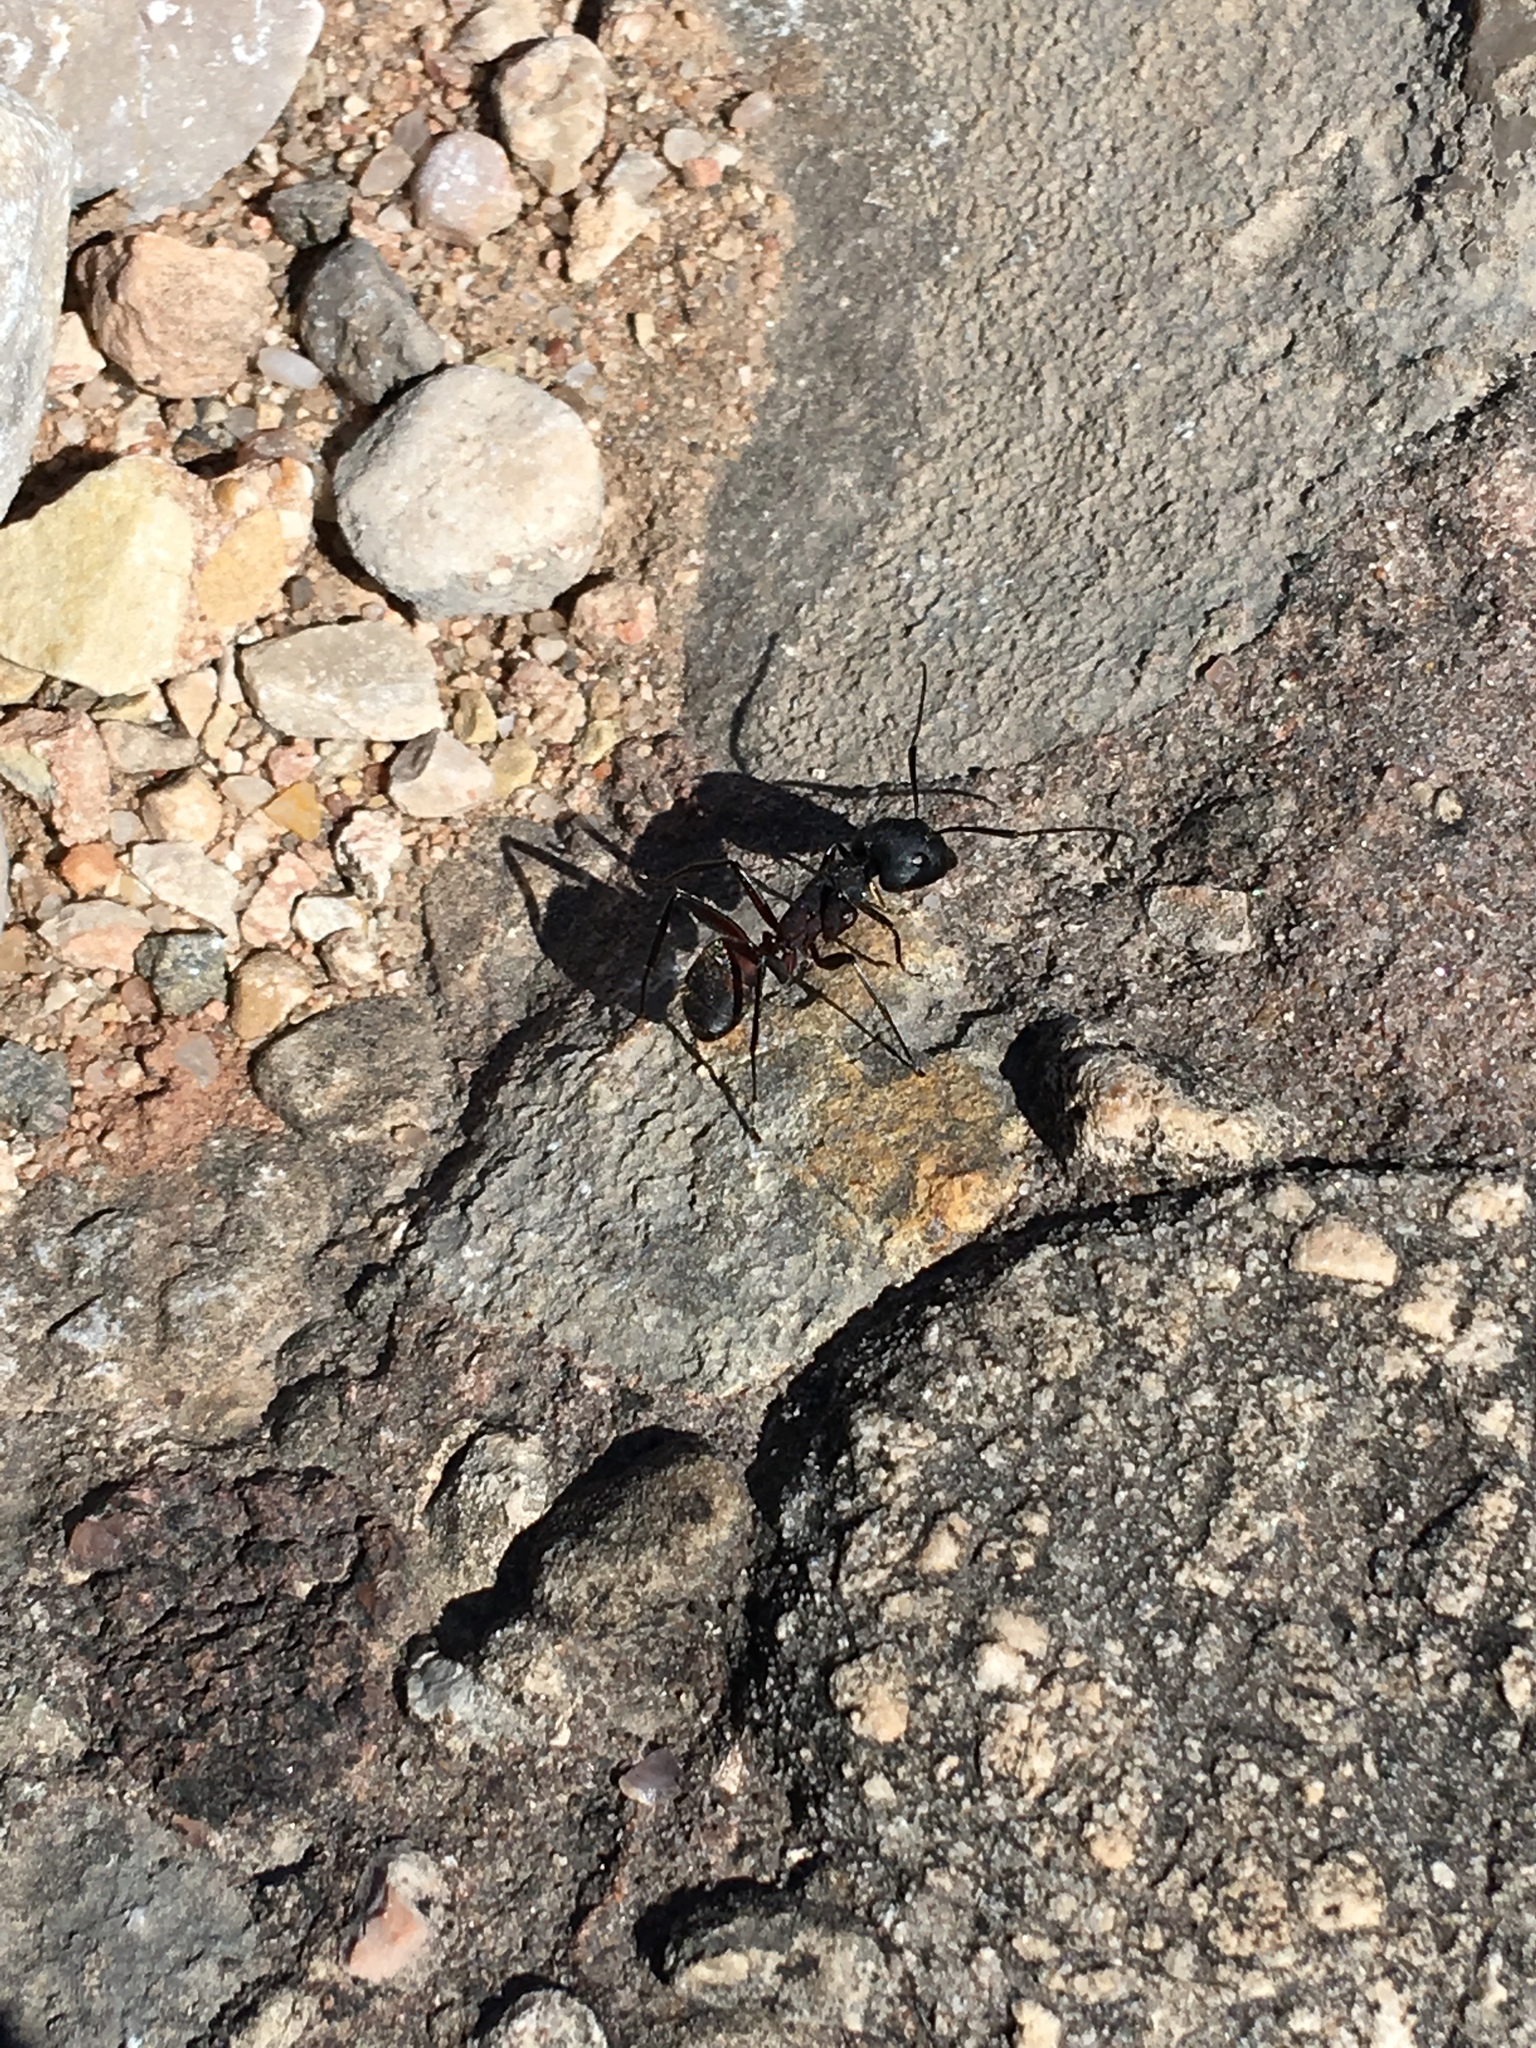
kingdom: Animalia
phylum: Arthropoda
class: Insecta
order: Hymenoptera
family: Formicidae
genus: Camponotus
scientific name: Camponotus cruentatus
